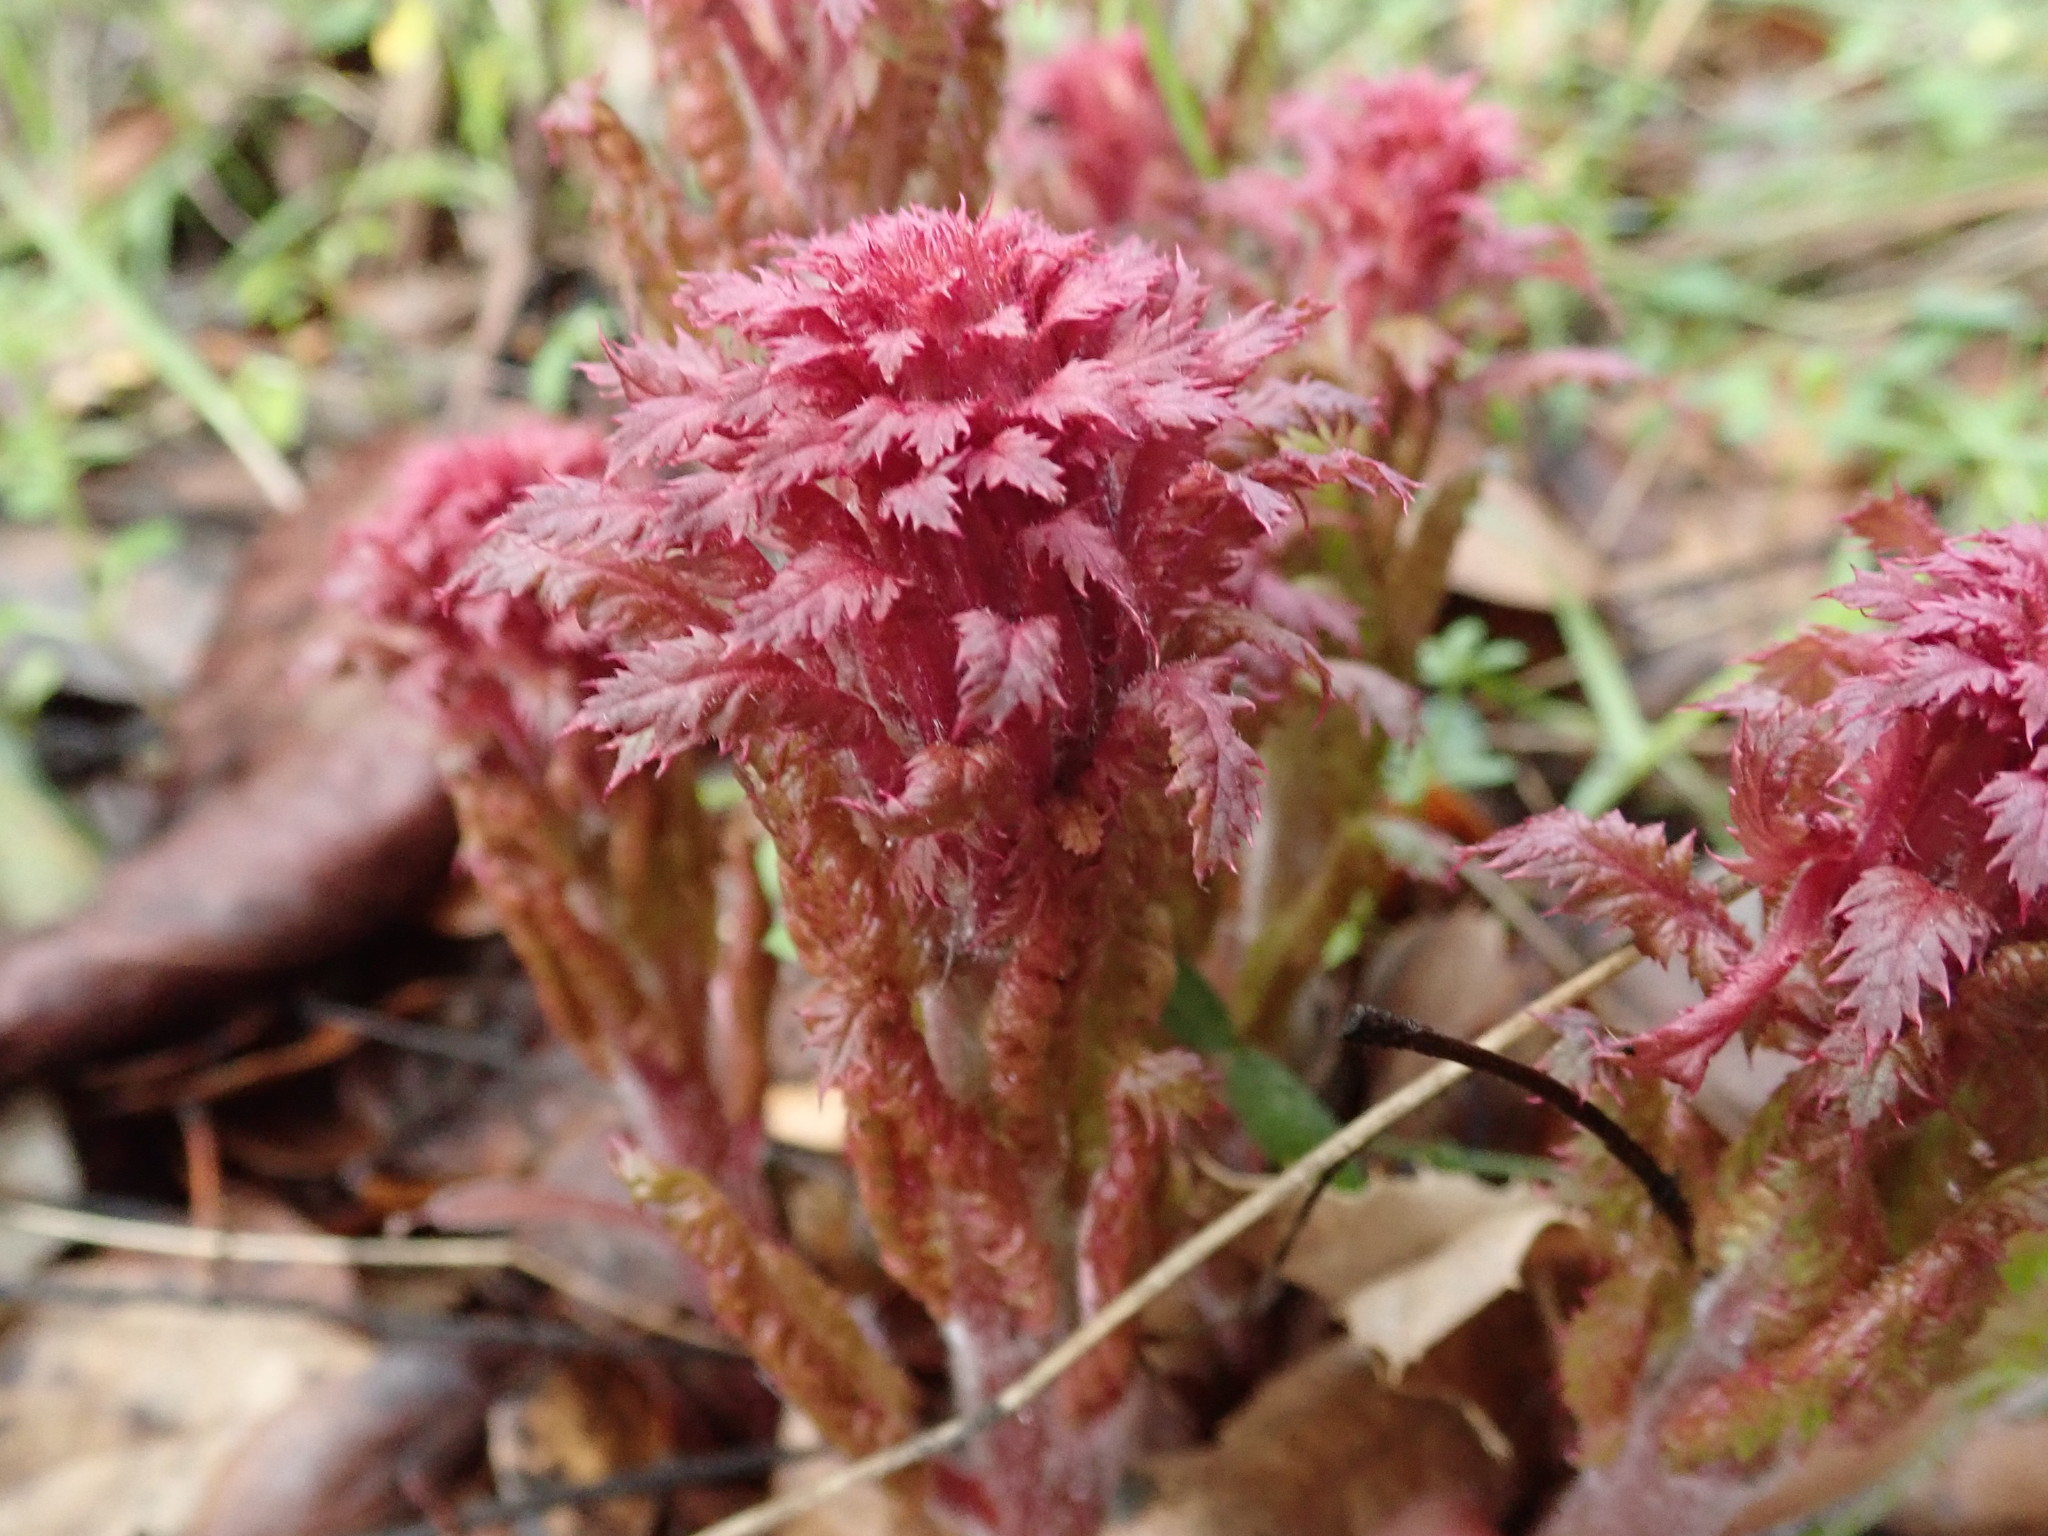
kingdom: Plantae
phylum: Tracheophyta
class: Magnoliopsida
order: Lamiales
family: Orobanchaceae
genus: Pedicularis
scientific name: Pedicularis densiflora
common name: Indian warrior
